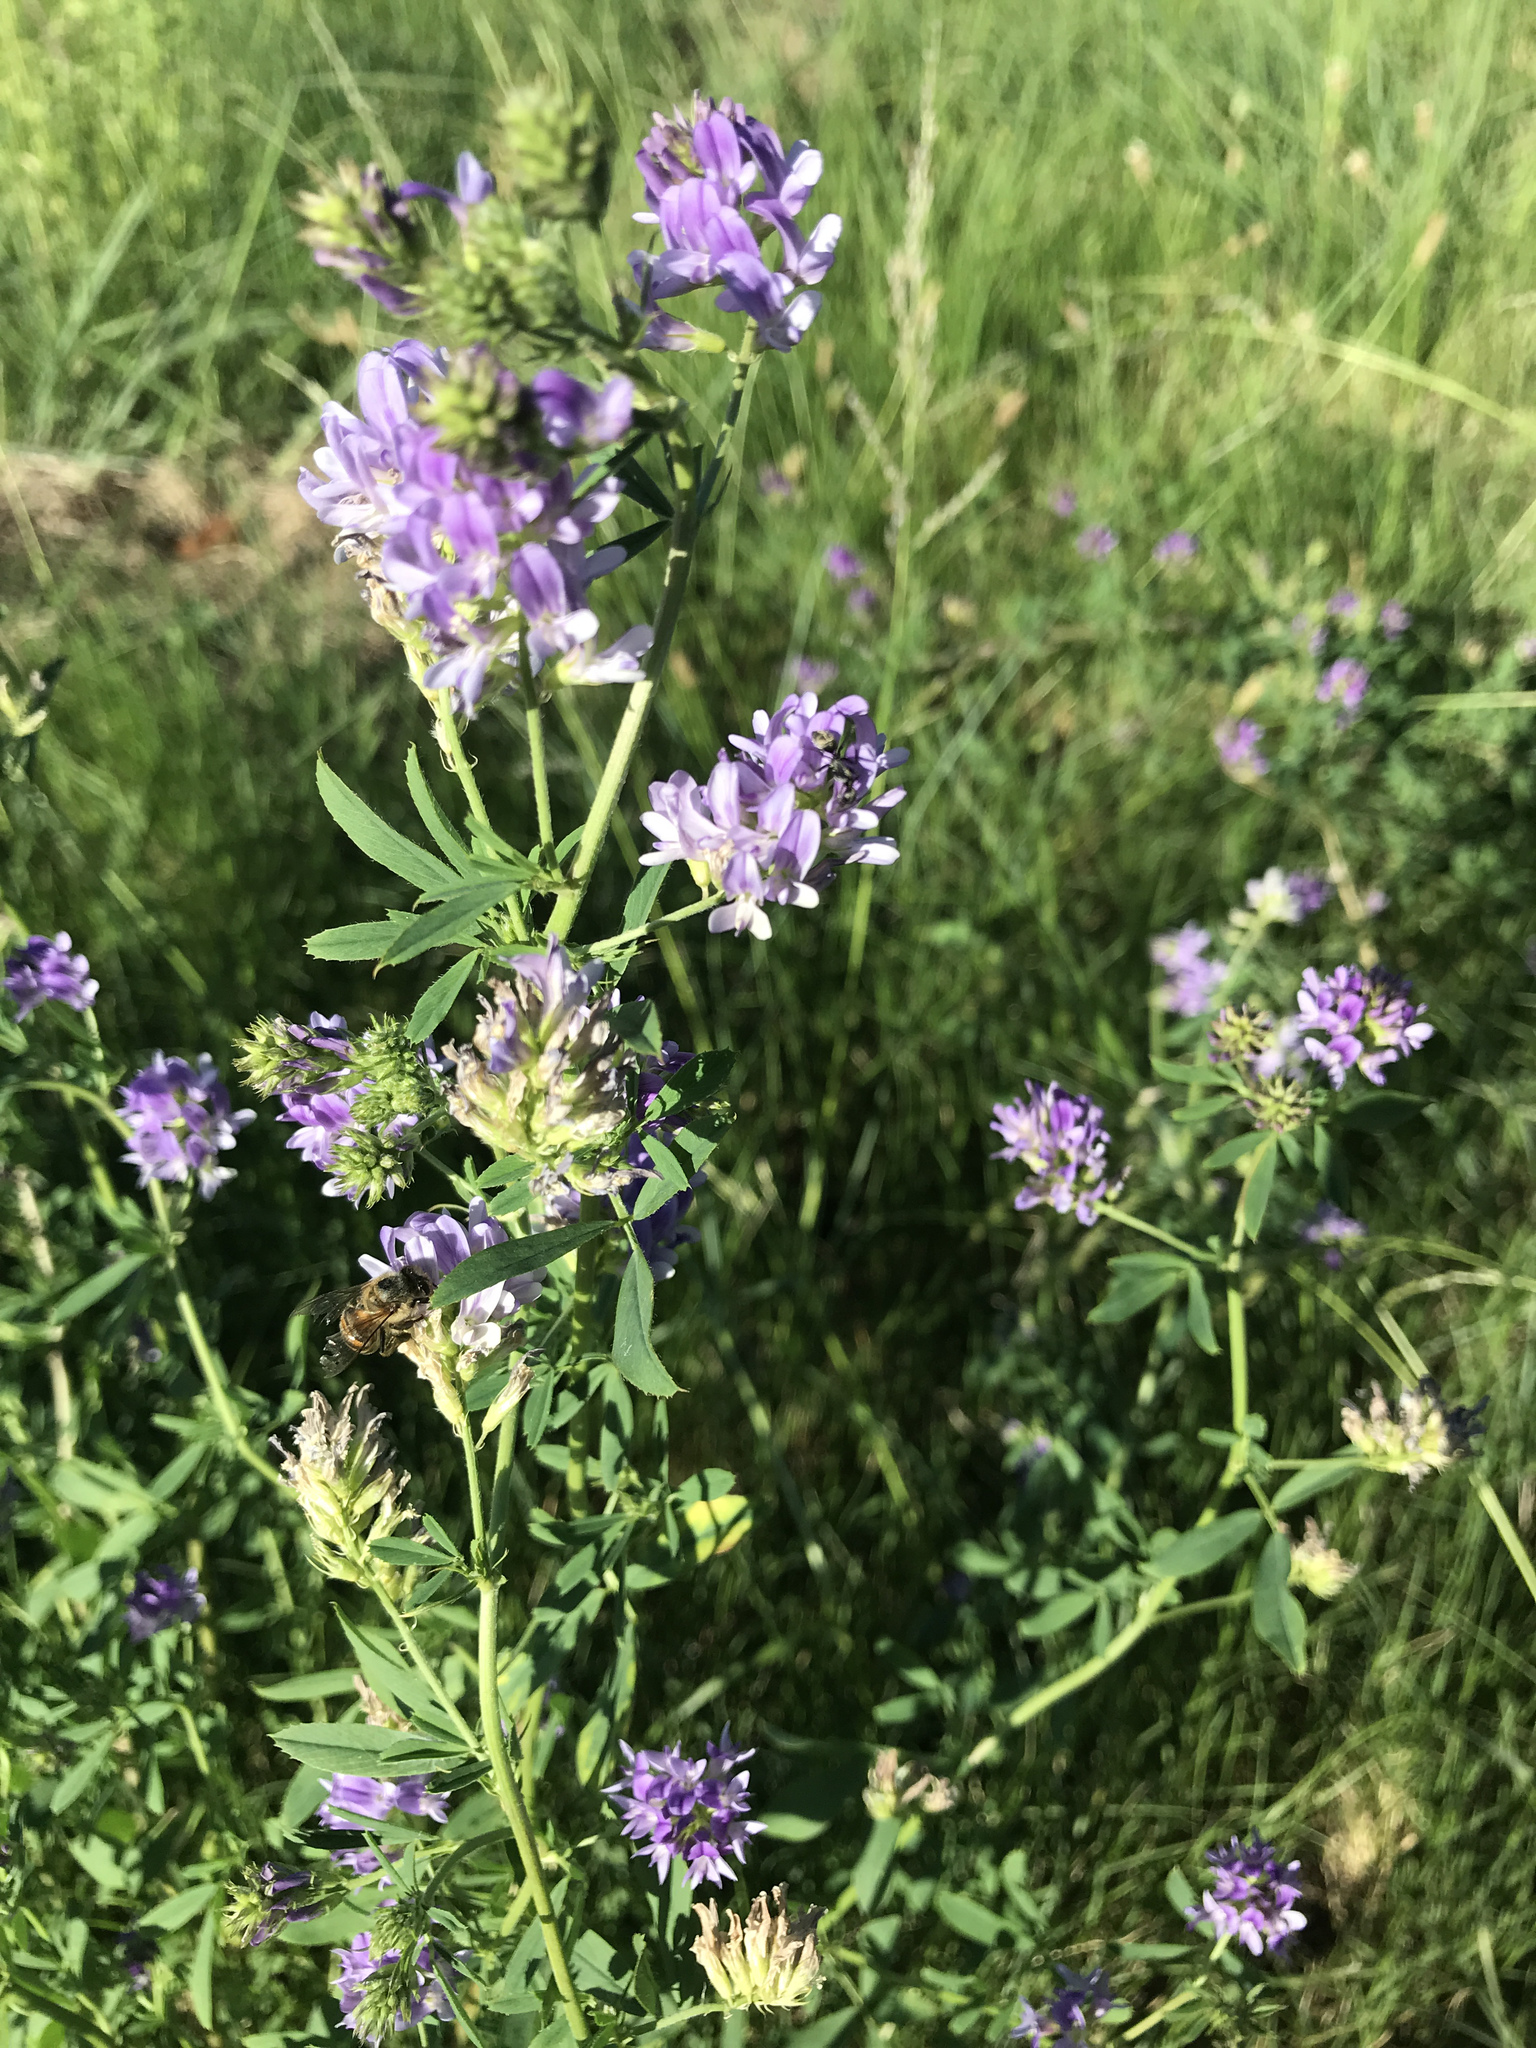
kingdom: Plantae
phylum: Tracheophyta
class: Magnoliopsida
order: Fabales
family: Fabaceae
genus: Medicago
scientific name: Medicago sativa
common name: Alfalfa
